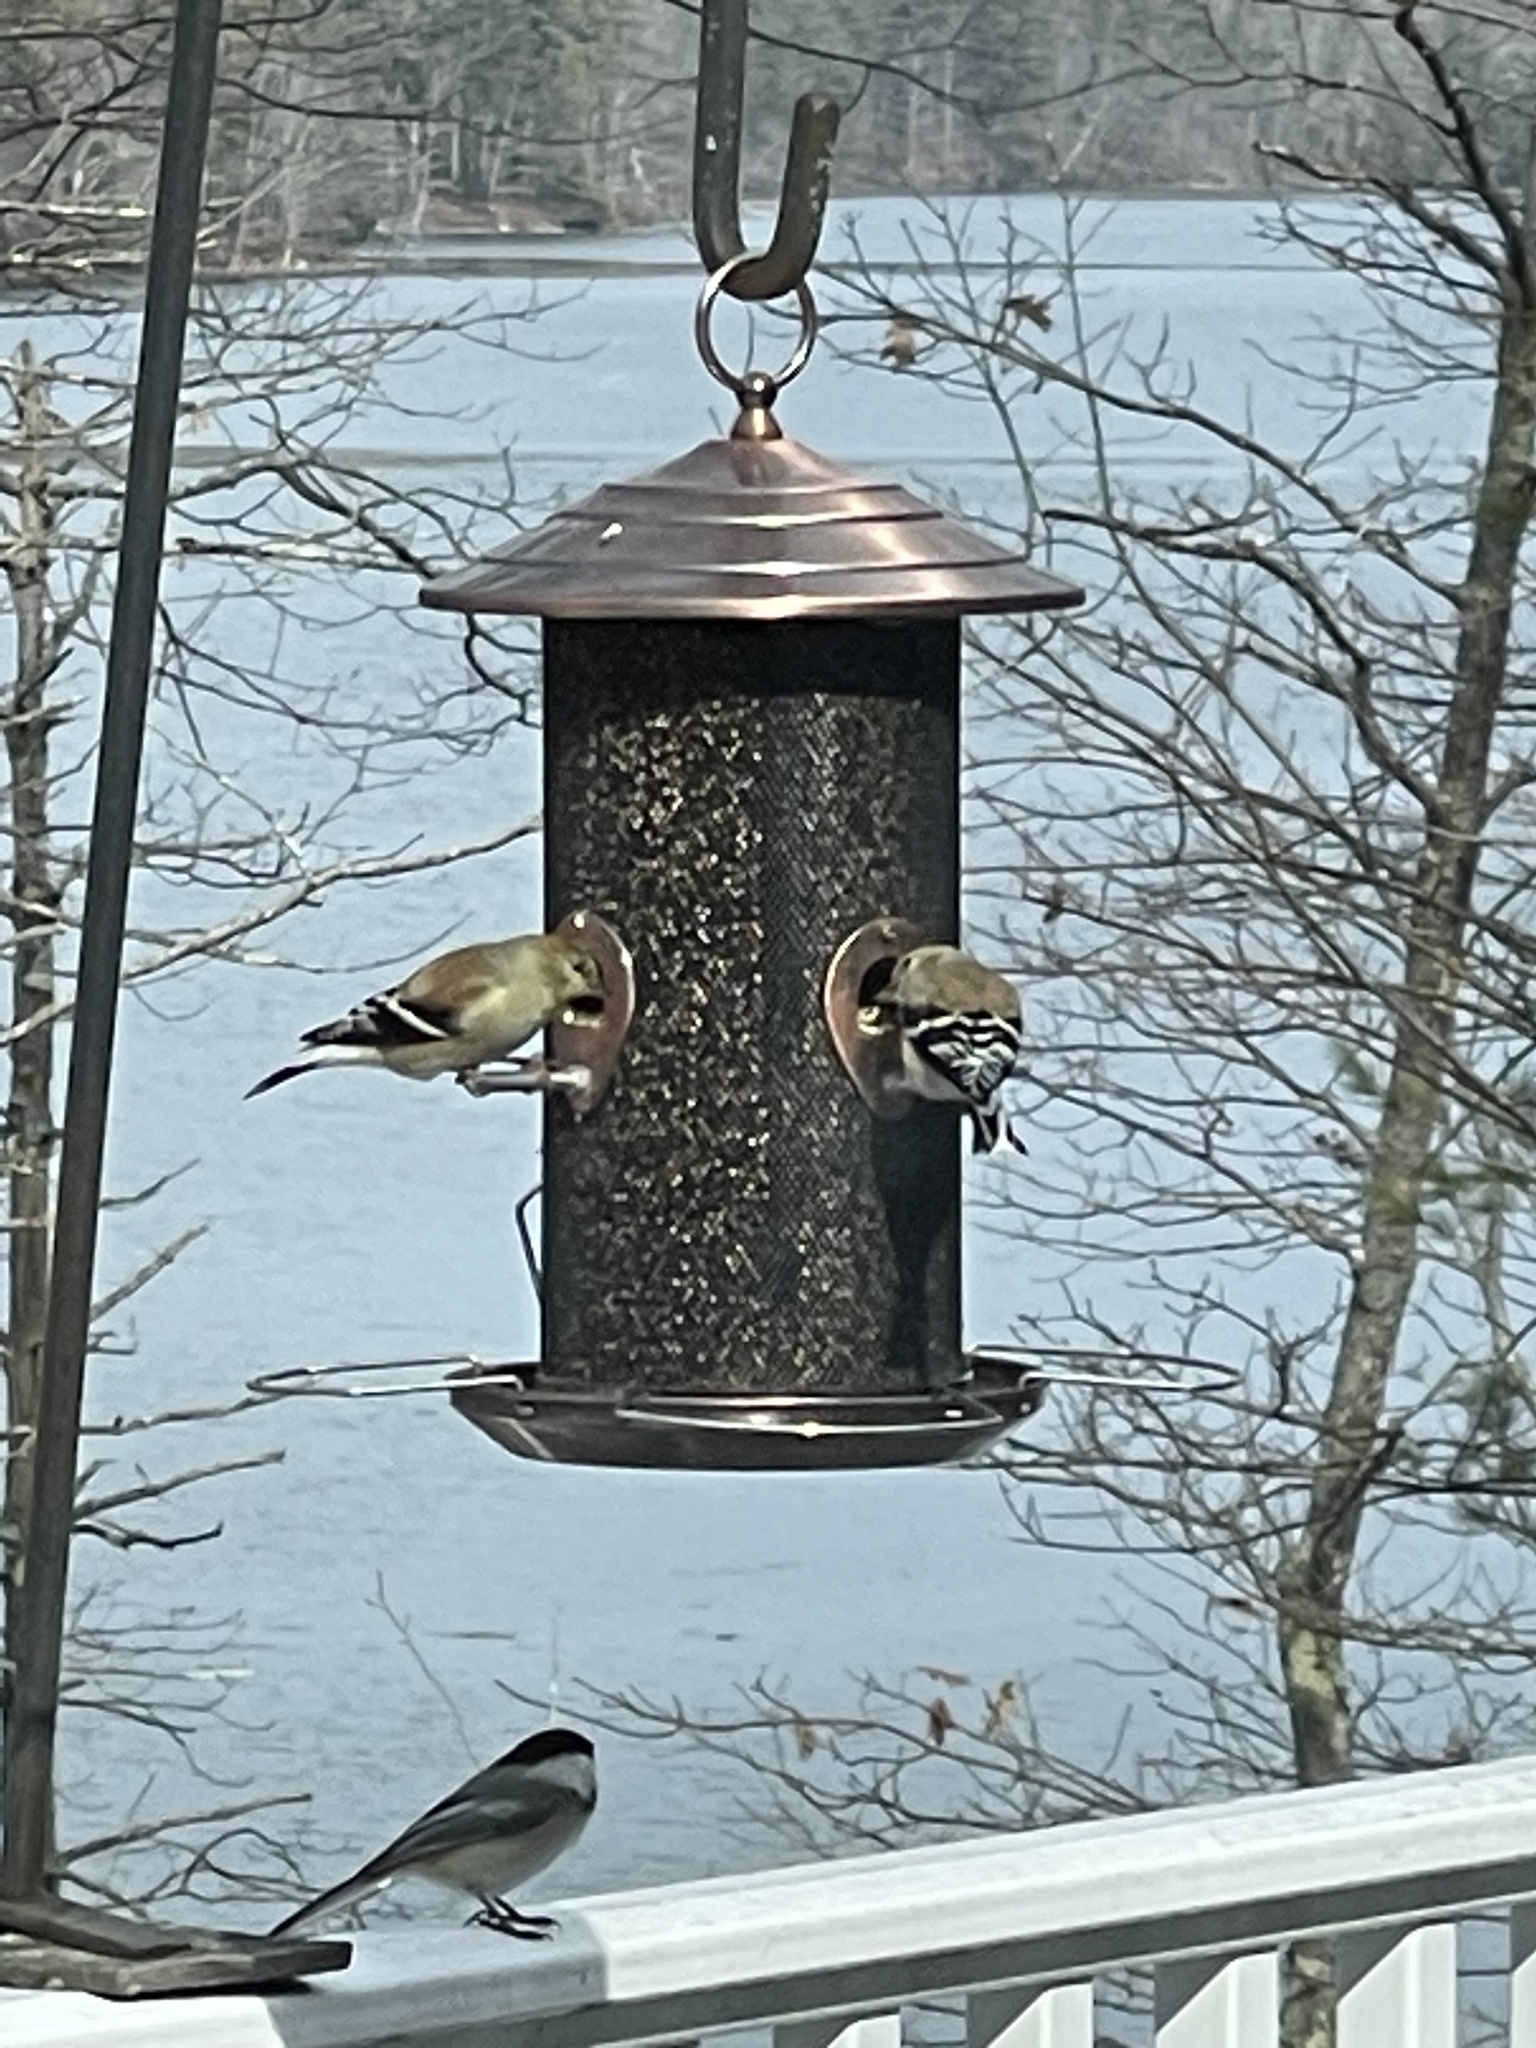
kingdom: Animalia
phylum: Chordata
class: Aves
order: Passeriformes
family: Fringillidae
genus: Spinus
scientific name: Spinus tristis
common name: American goldfinch
